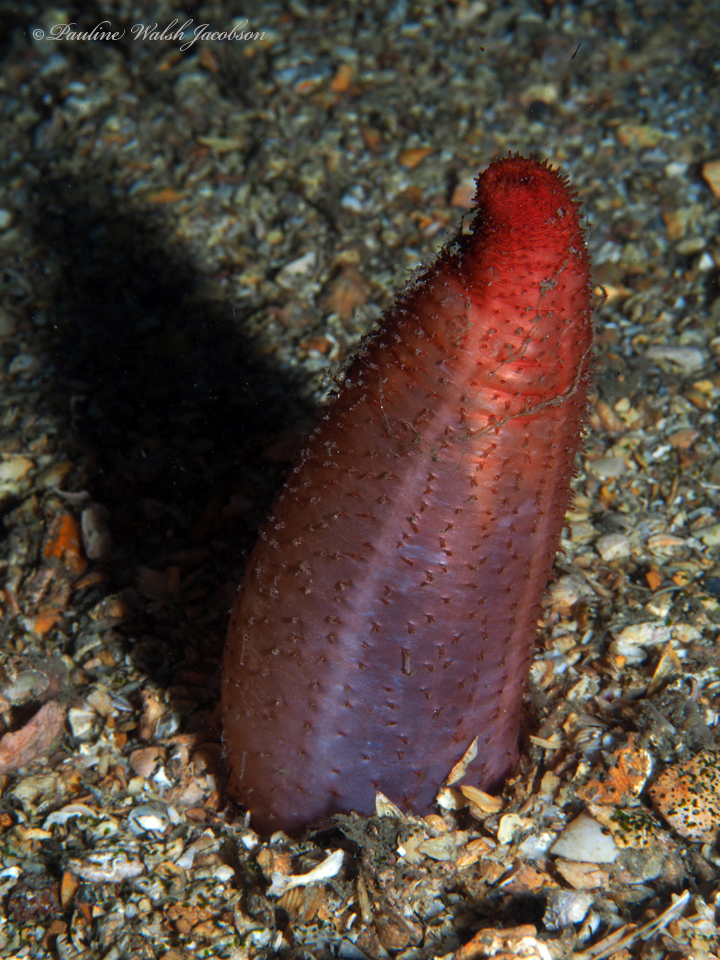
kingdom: Animalia
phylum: Echinodermata
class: Holothuroidea
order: Dendrochirotida
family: Phyllophoridae
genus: Neothyonidium
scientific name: Neothyonidium parvum
